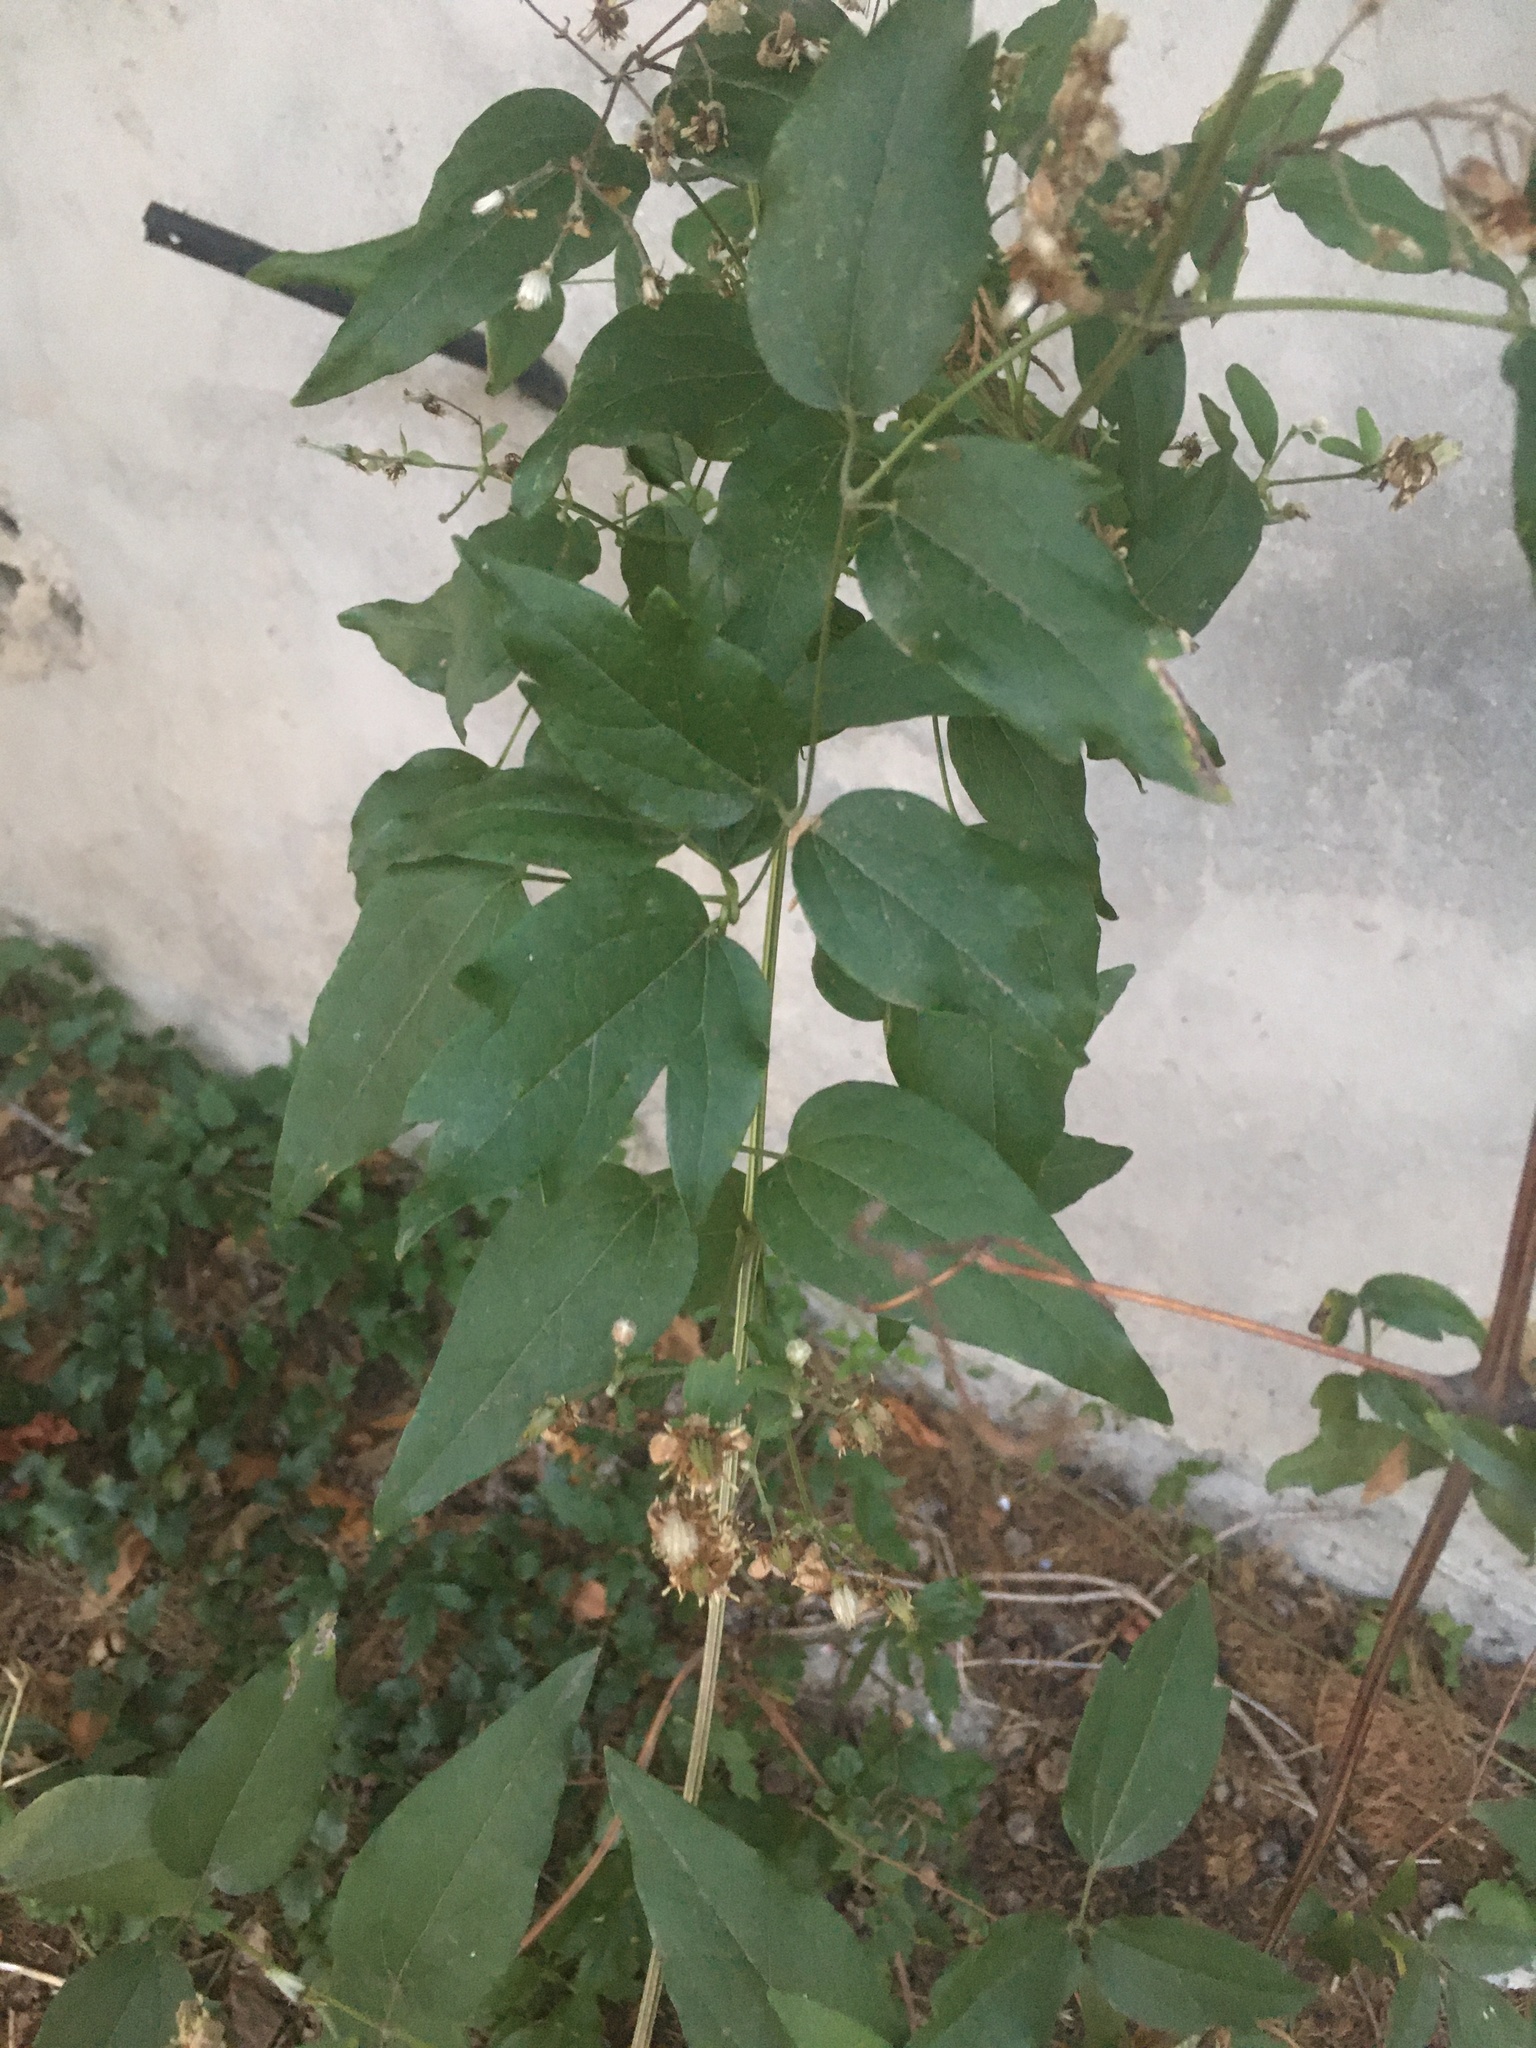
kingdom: Plantae
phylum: Tracheophyta
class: Magnoliopsida
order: Ranunculales
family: Ranunculaceae
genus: Clematis
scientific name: Clematis vitalba
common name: Evergreen clematis
